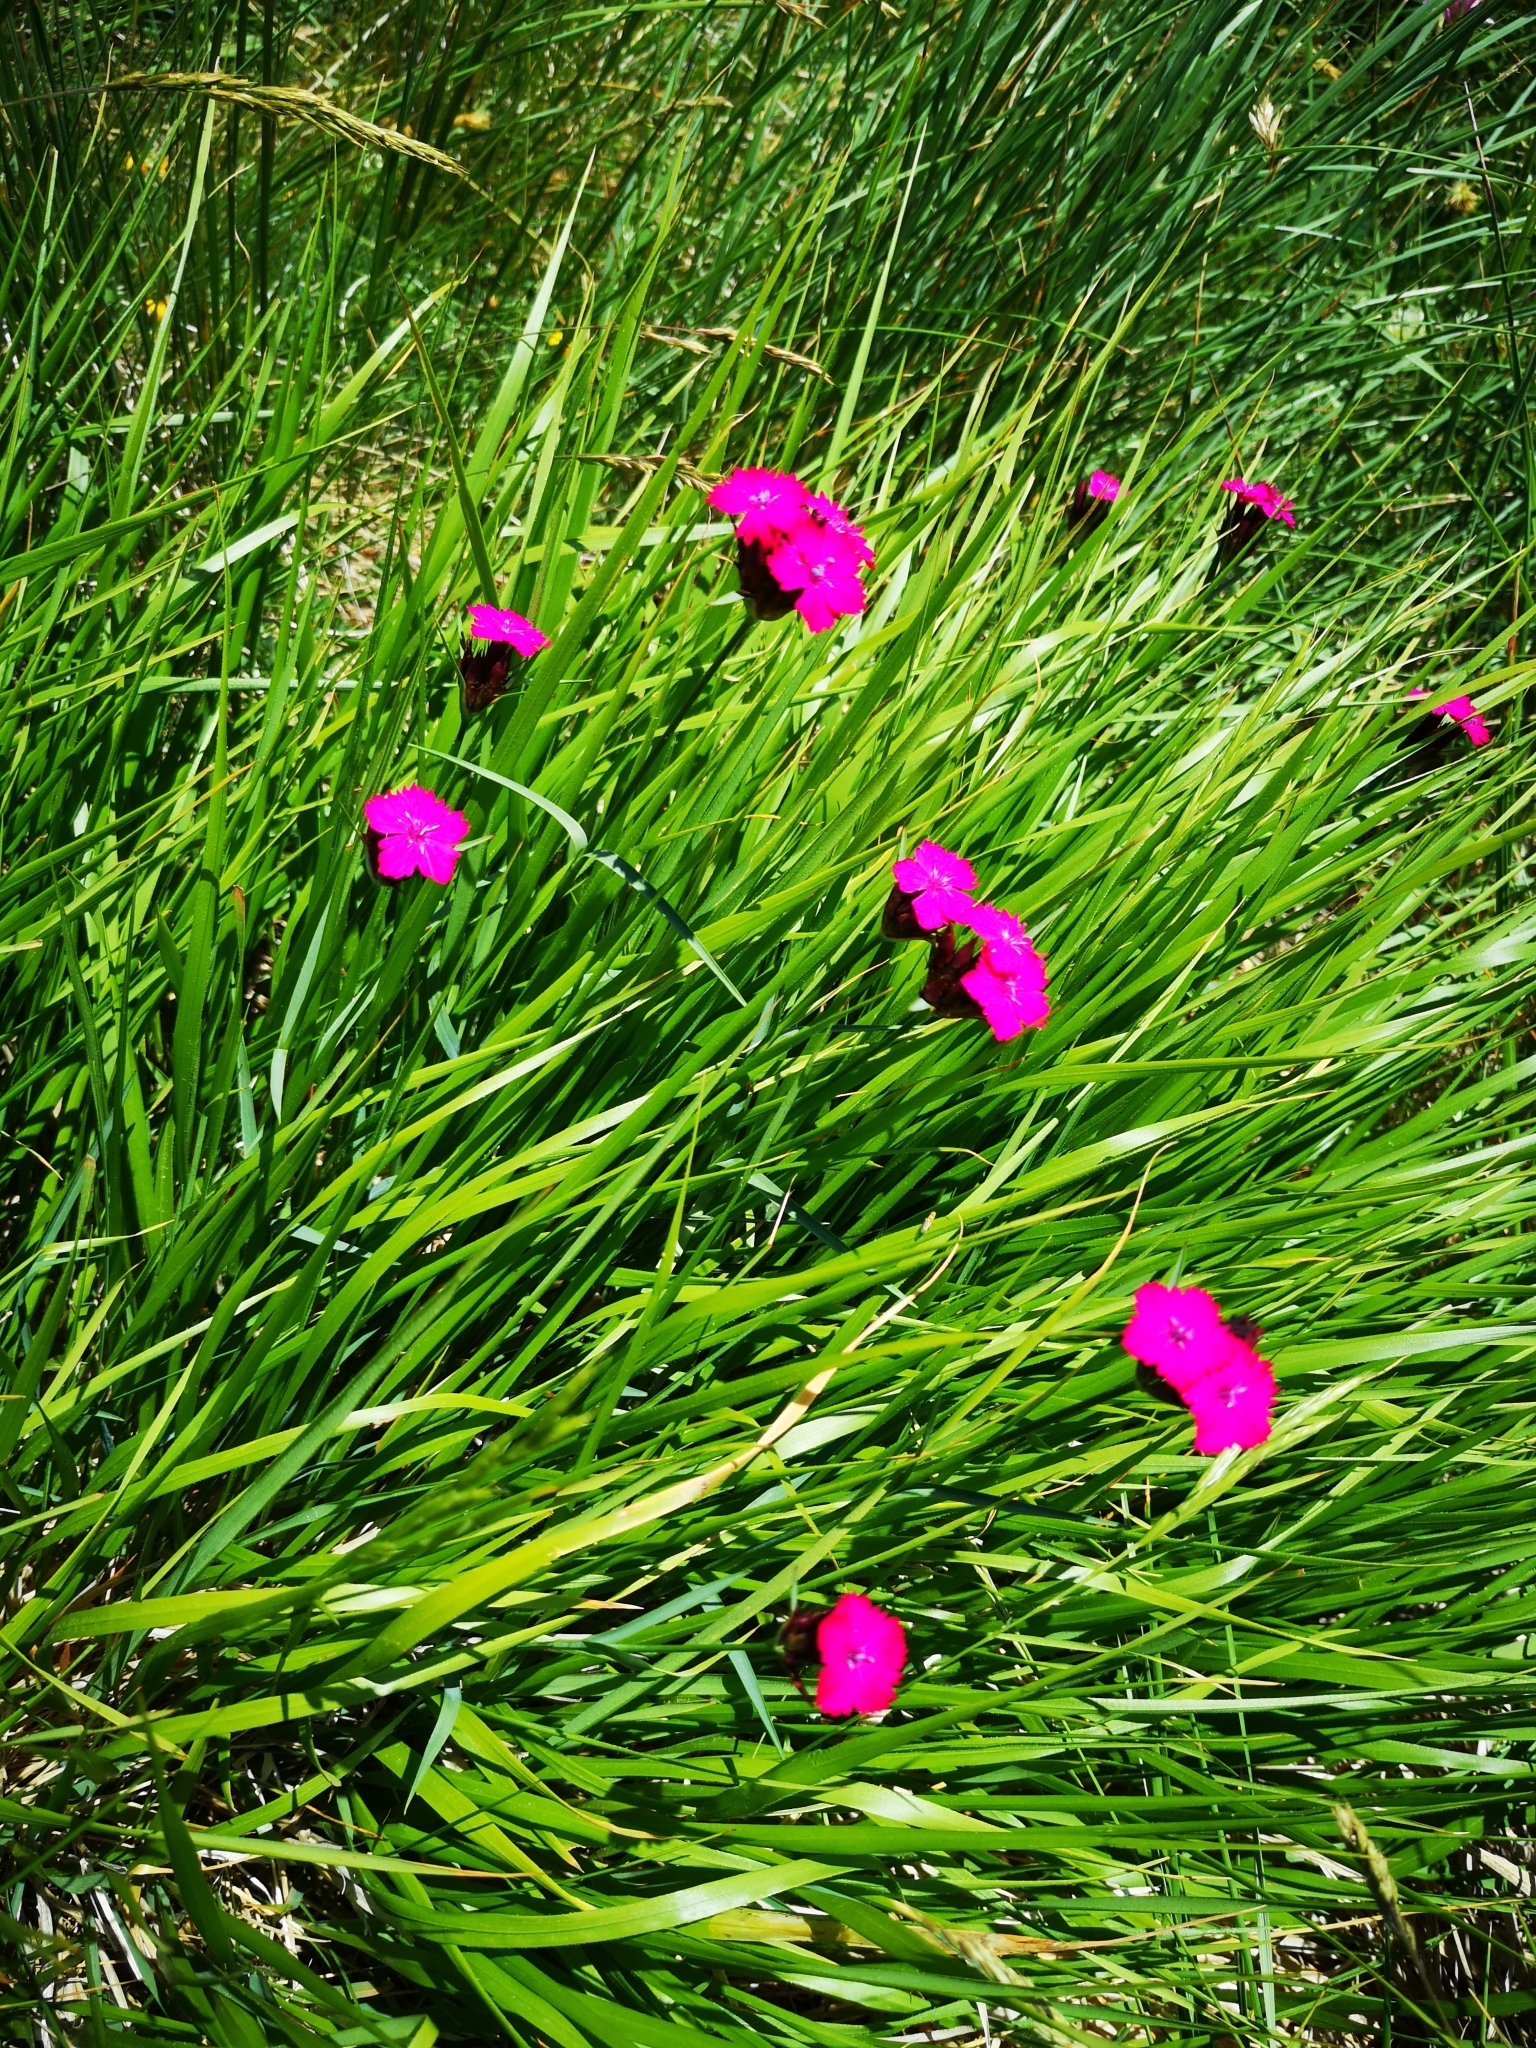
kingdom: Plantae
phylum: Tracheophyta
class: Magnoliopsida
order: Caryophyllales
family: Caryophyllaceae
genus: Dianthus
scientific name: Dianthus carthusianorum
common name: Carthusian pink
